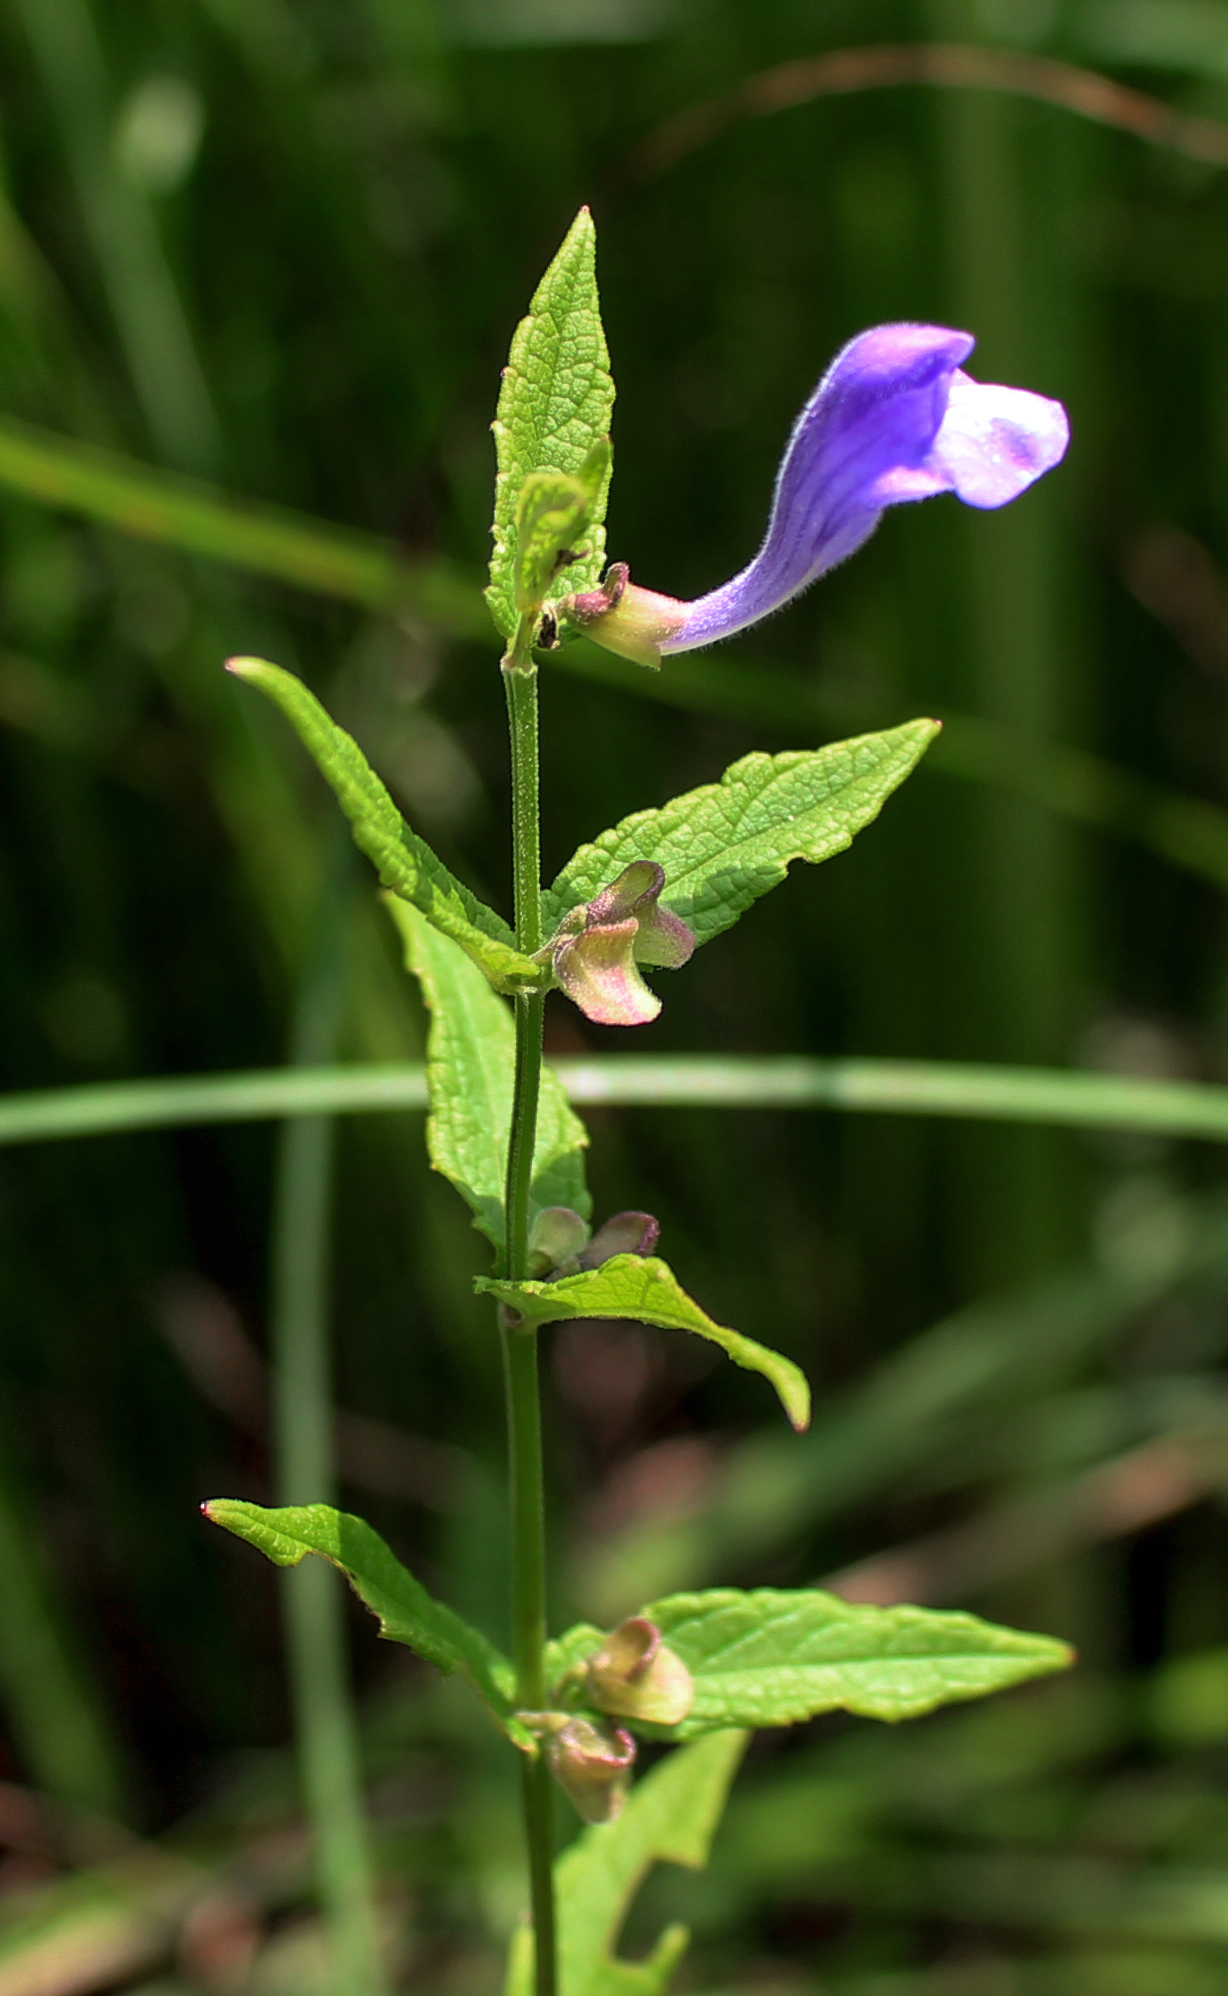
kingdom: Plantae
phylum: Tracheophyta
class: Magnoliopsida
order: Lamiales
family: Lamiaceae
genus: Scutellaria
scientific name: Scutellaria galericulata
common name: Skullcap
